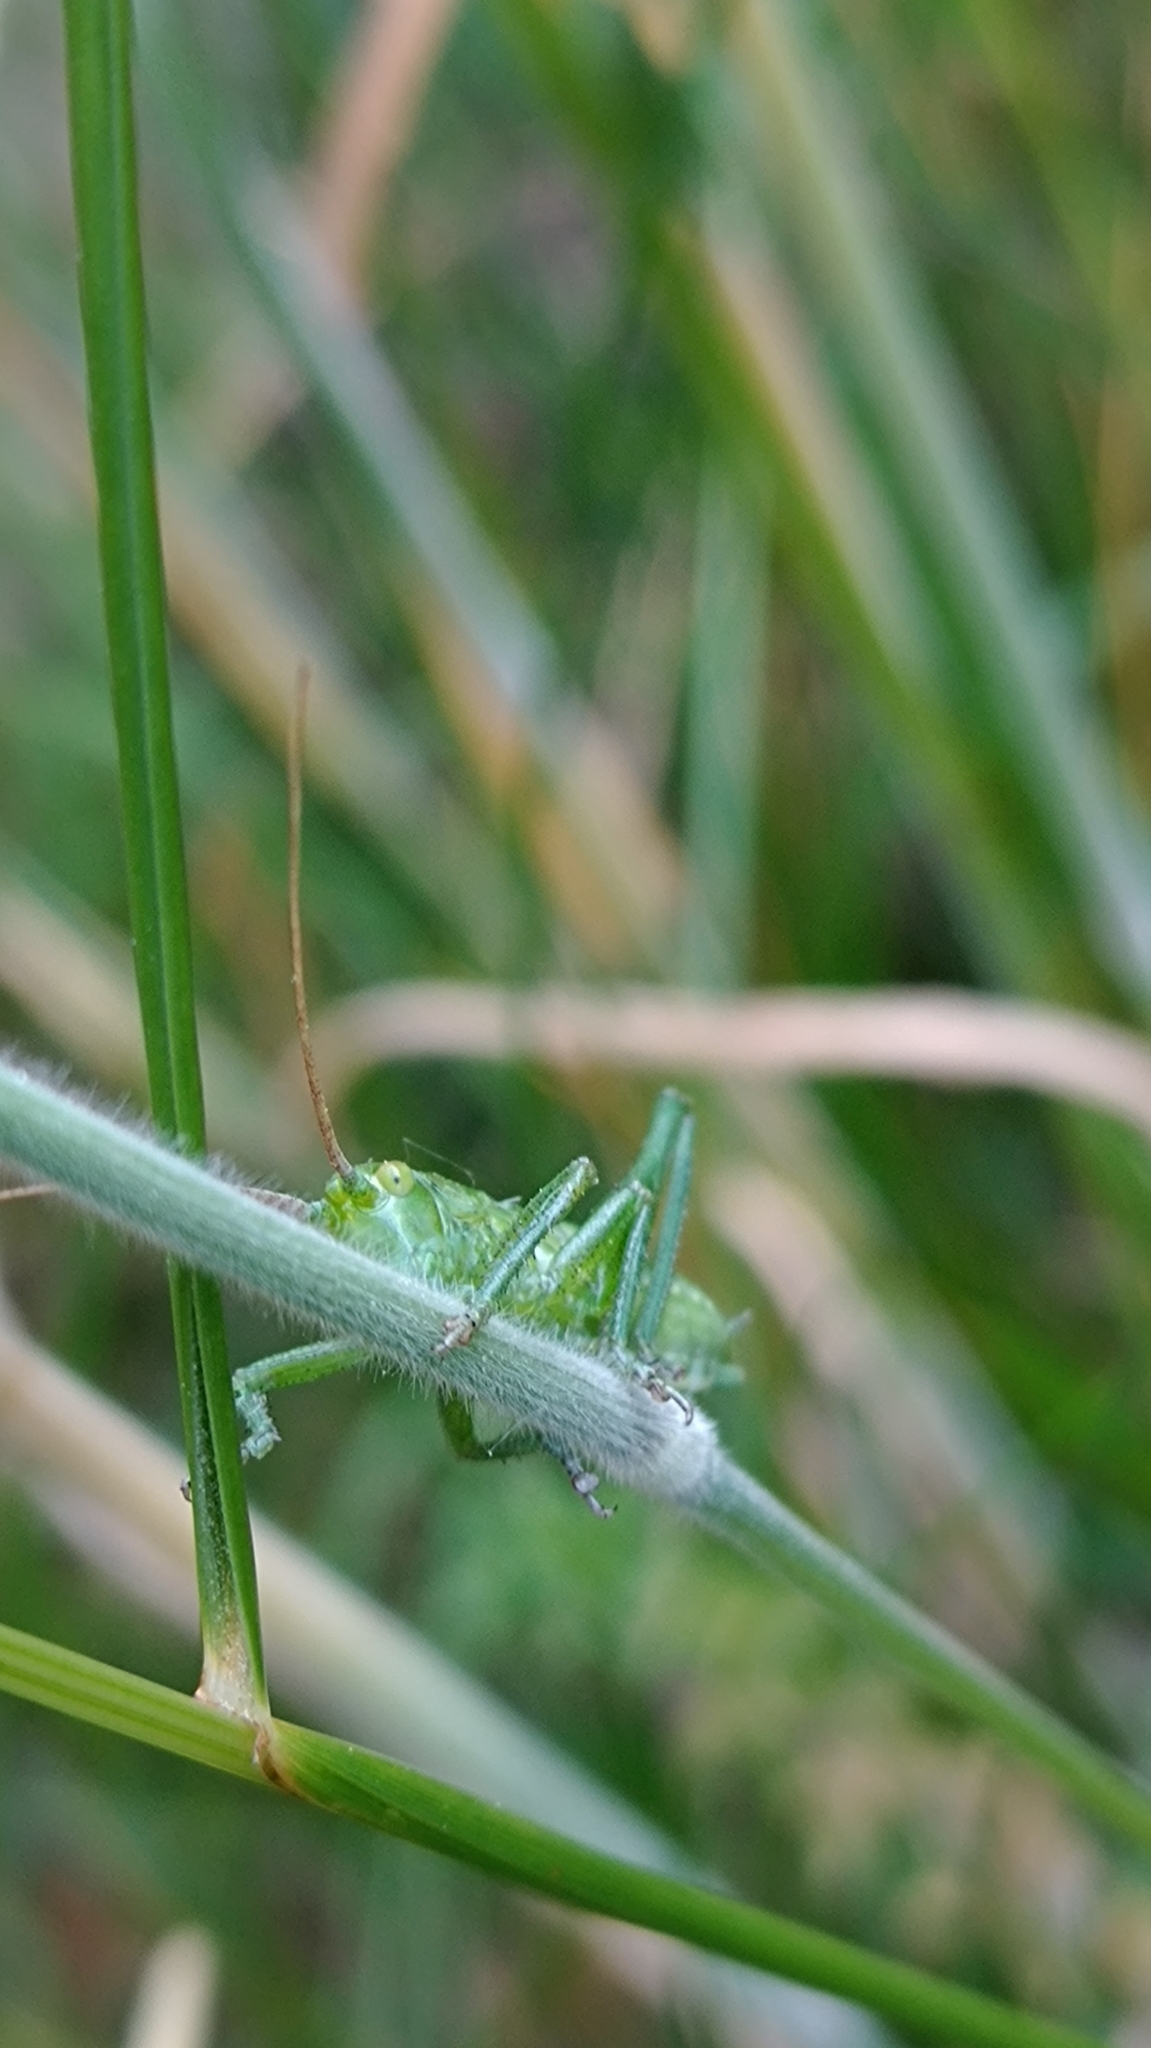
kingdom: Animalia
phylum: Arthropoda
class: Insecta
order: Orthoptera
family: Tettigoniidae
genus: Tettigonia
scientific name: Tettigonia viridissima
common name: Great green bush-cricket
